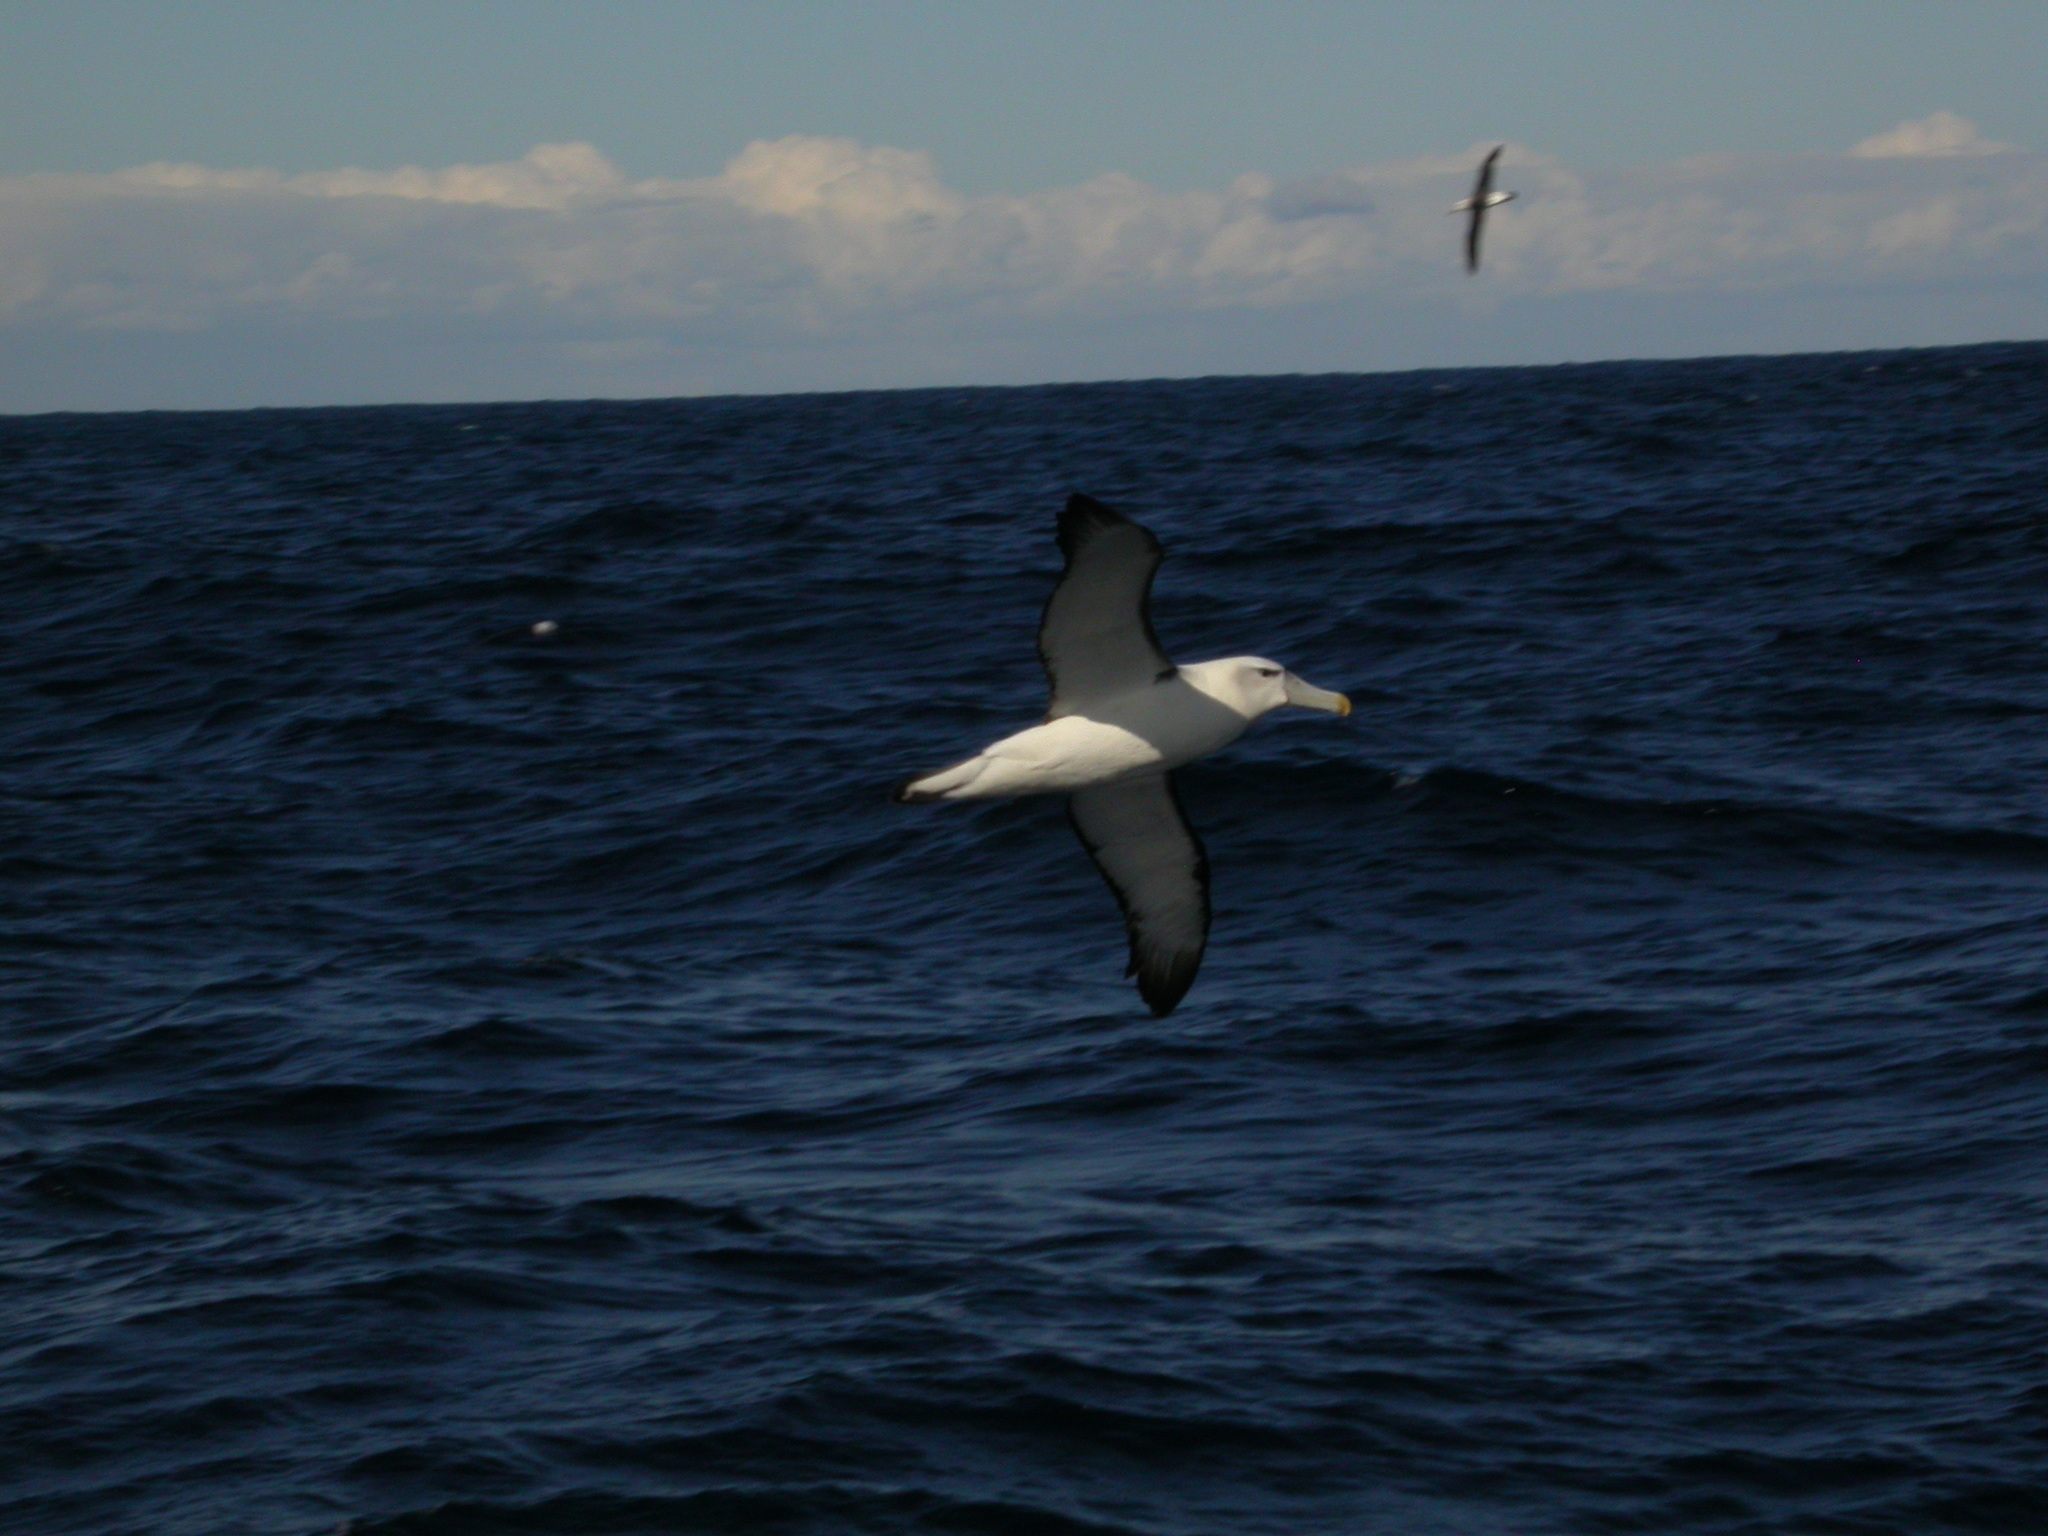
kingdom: Animalia
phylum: Chordata
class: Aves
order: Procellariiformes
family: Diomedeidae
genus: Thalassarche
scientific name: Thalassarche cauta
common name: Shy albatross
